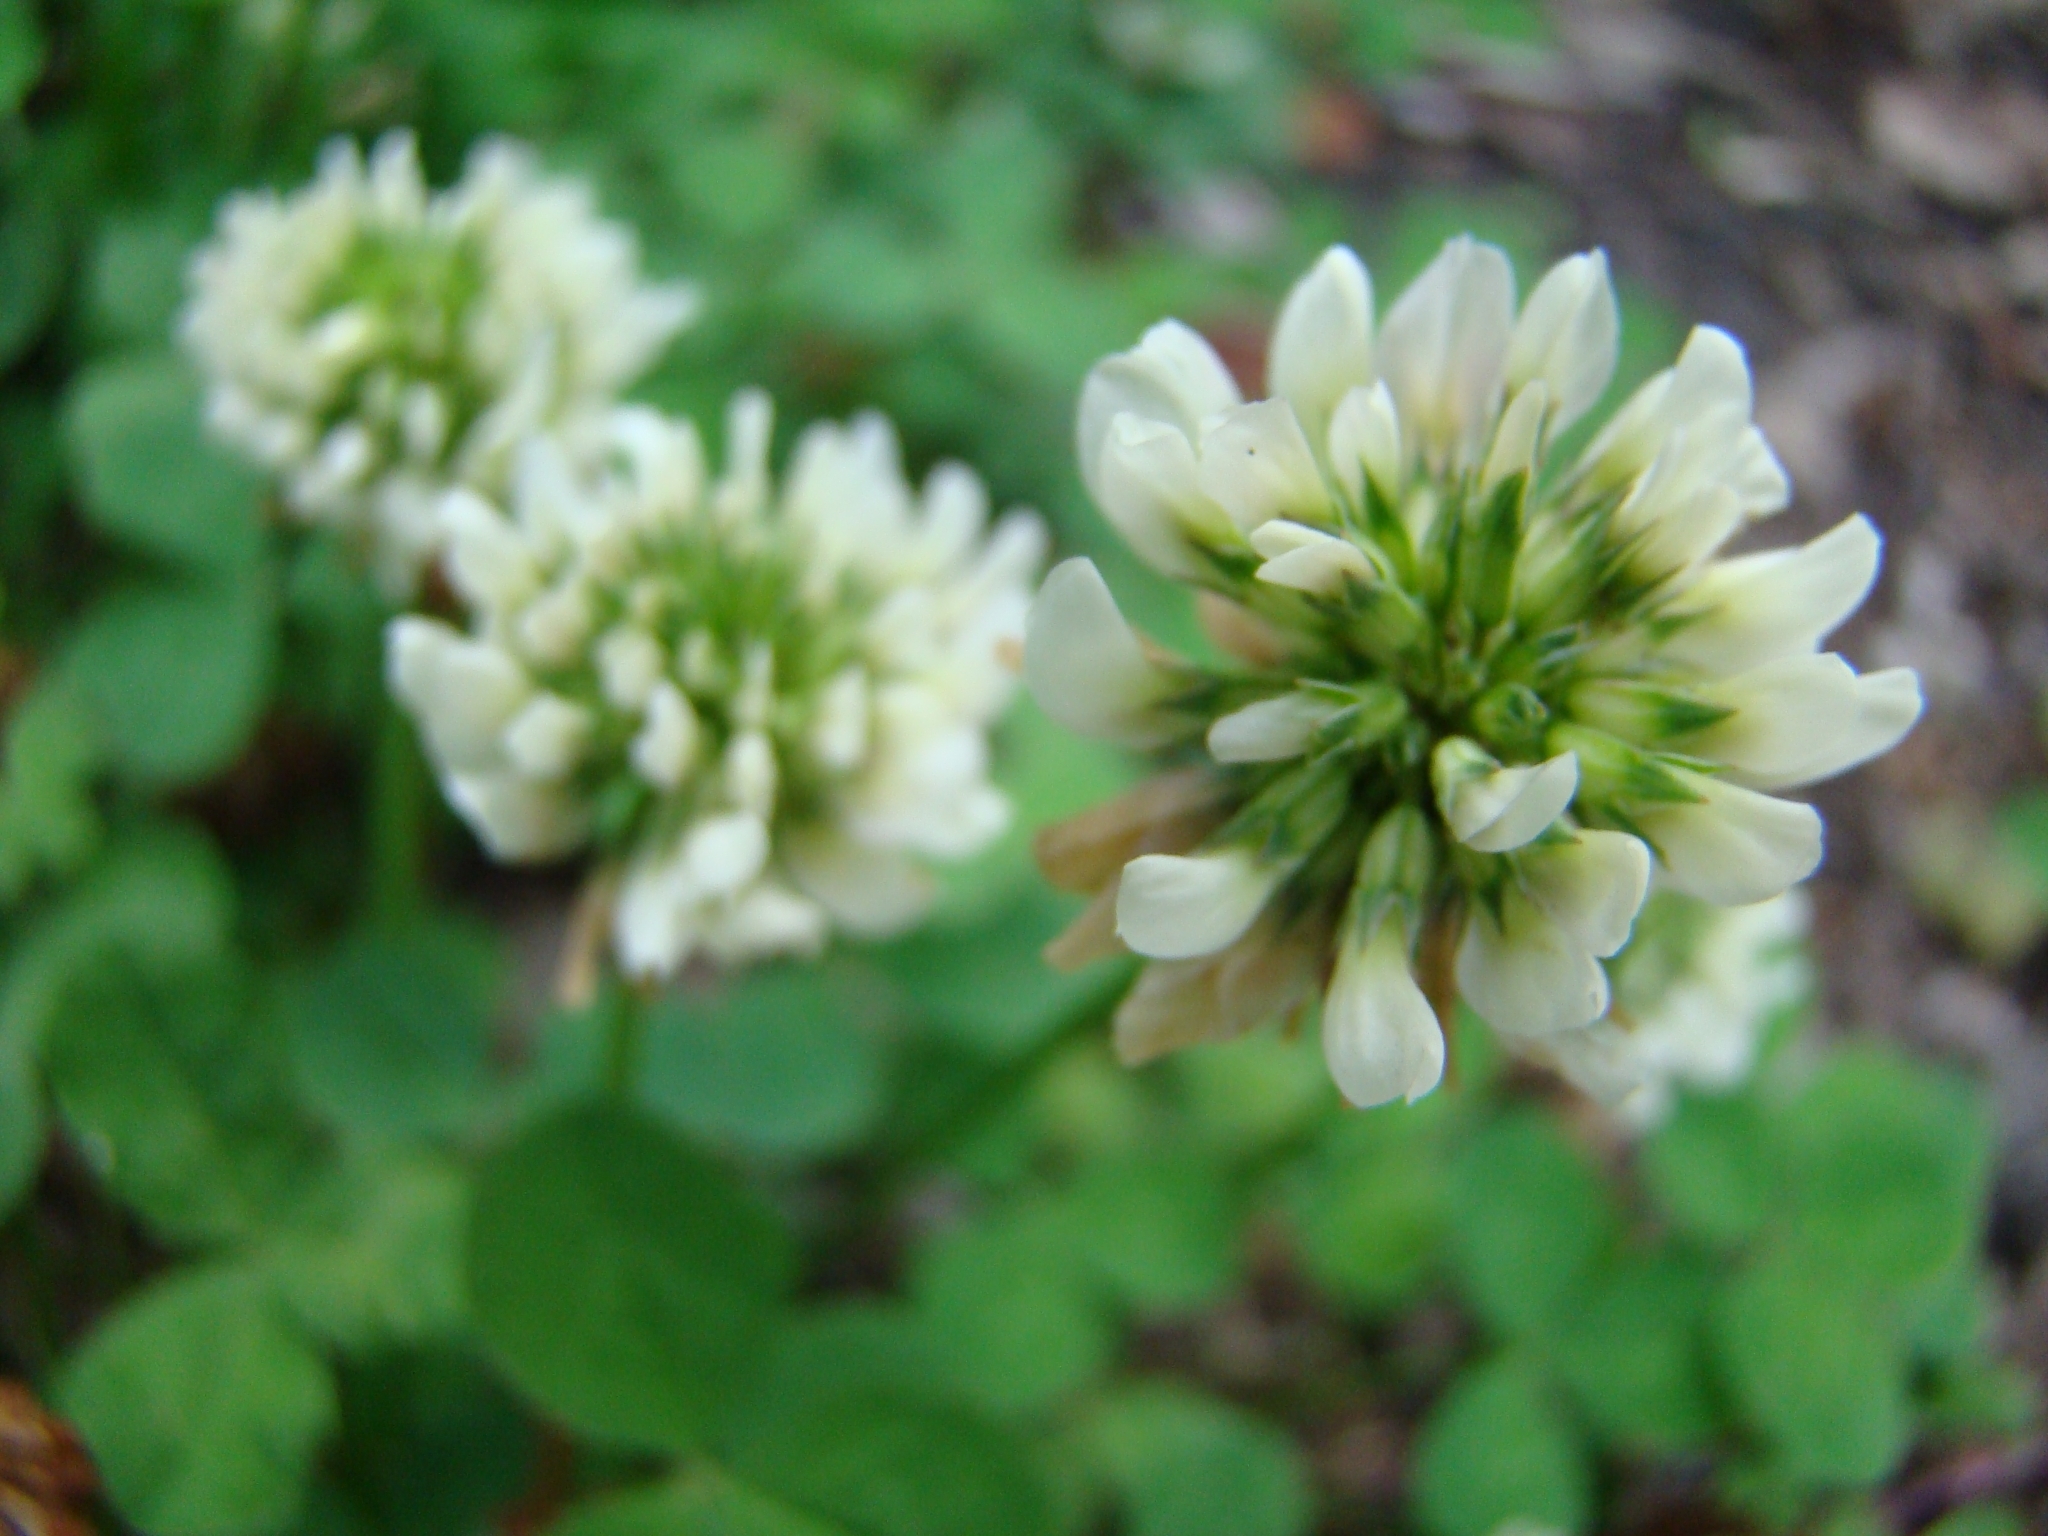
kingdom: Plantae
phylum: Tracheophyta
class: Magnoliopsida
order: Fabales
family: Fabaceae
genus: Trifolium
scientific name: Trifolium repens
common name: White clover
